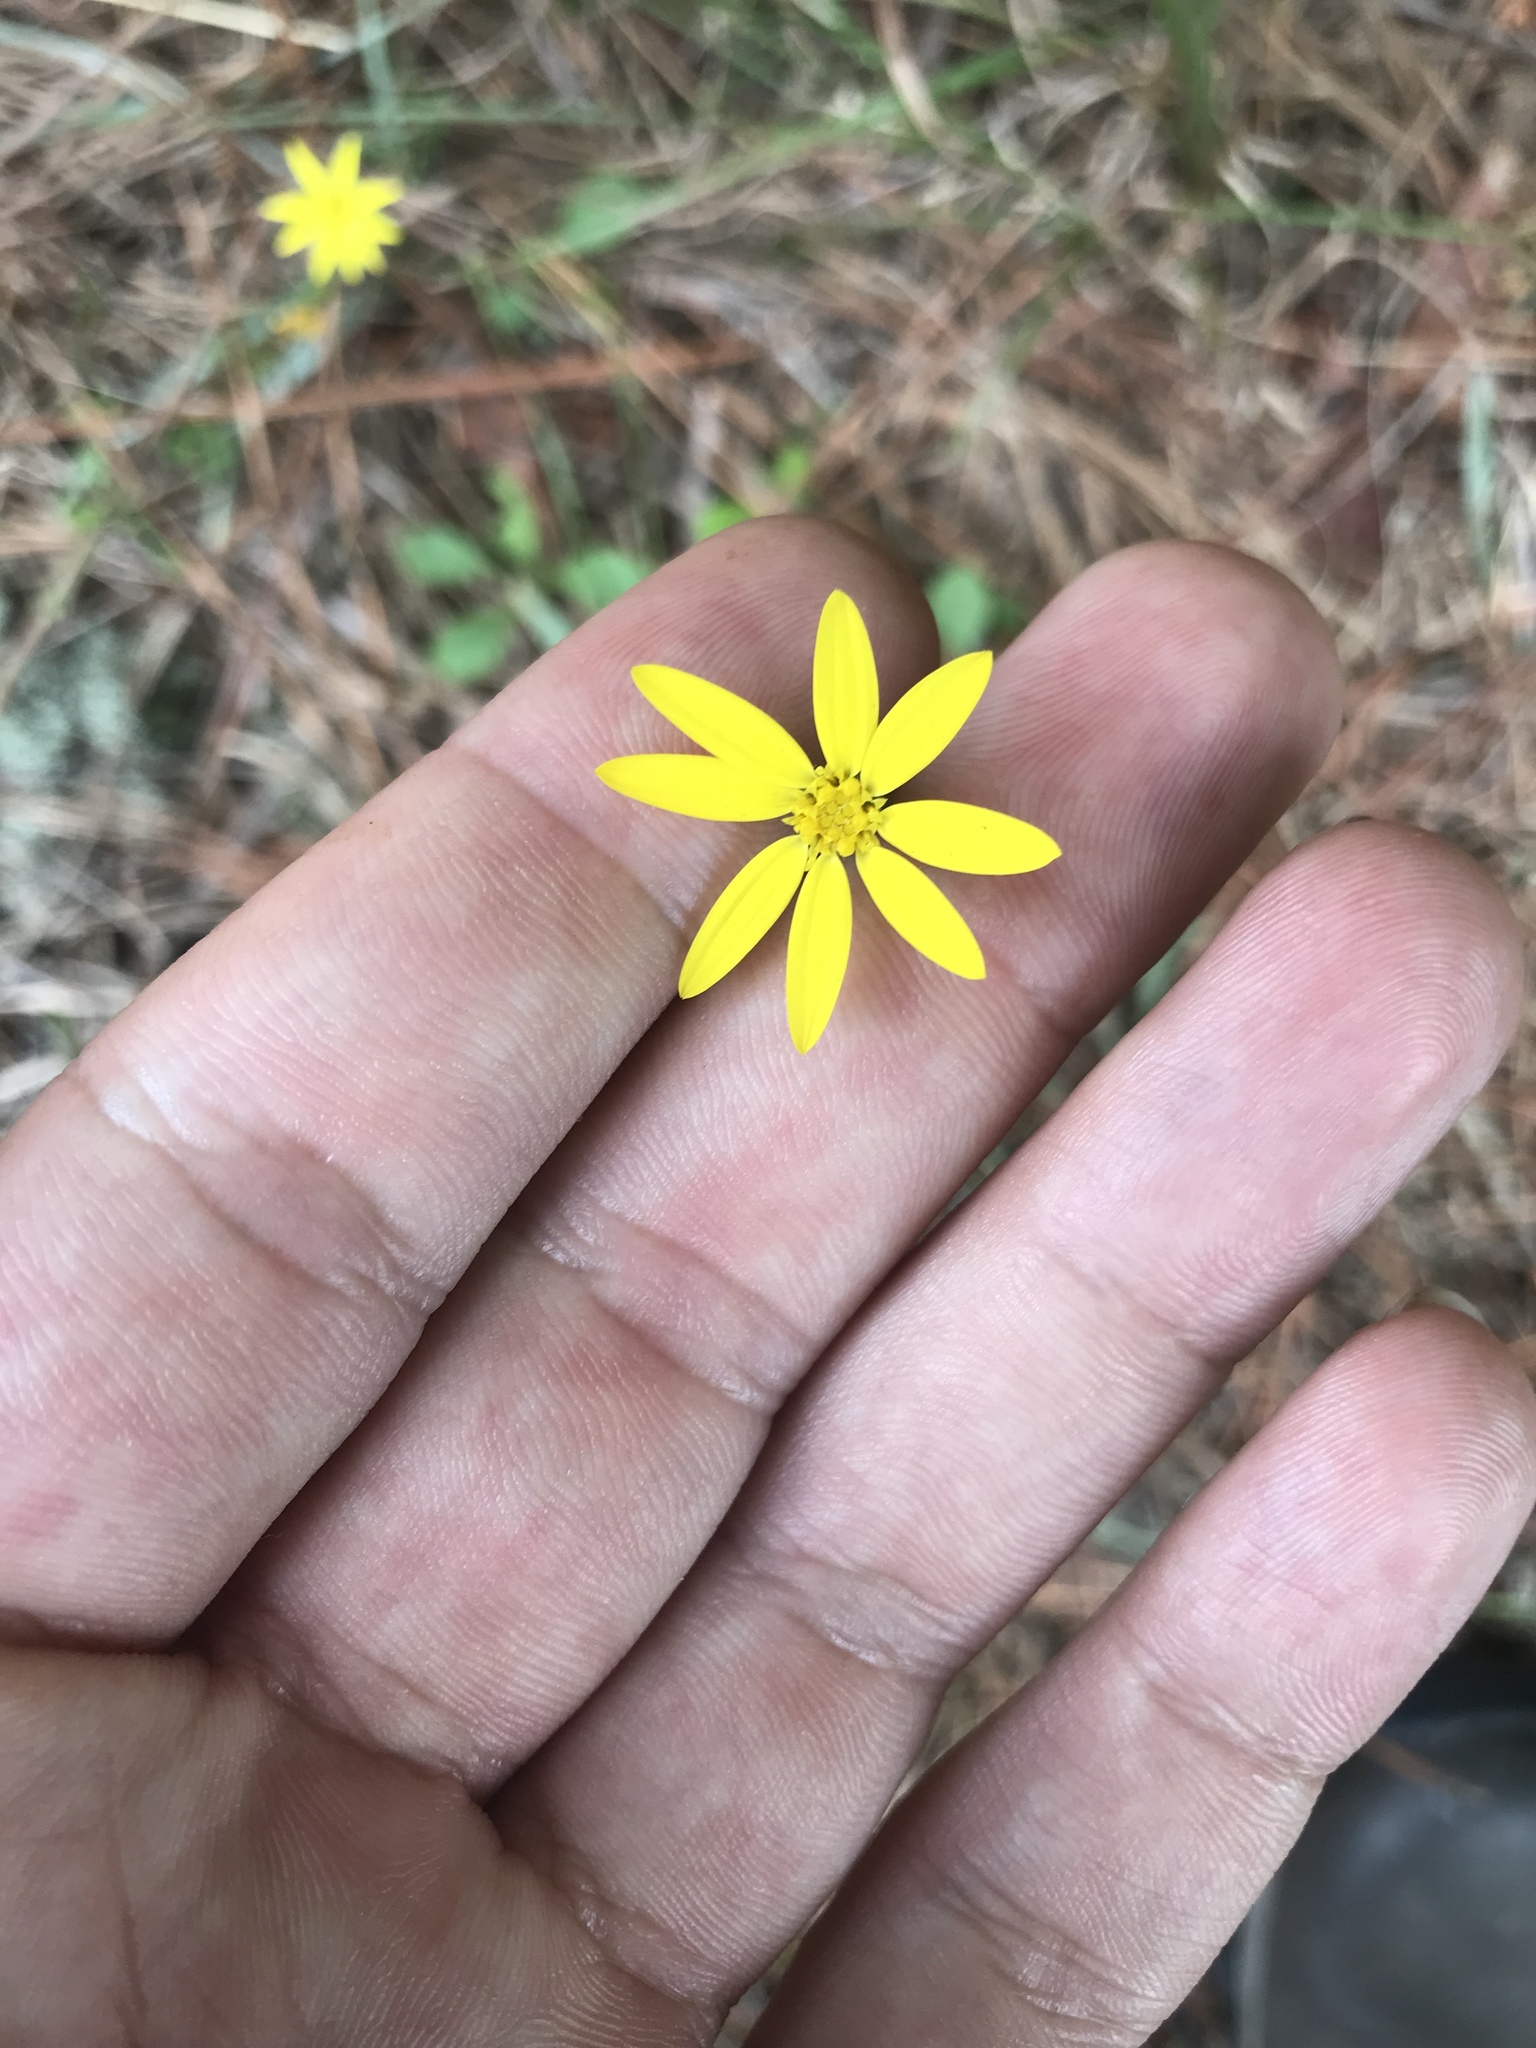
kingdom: Plantae
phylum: Tracheophyta
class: Magnoliopsida
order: Asterales
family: Asteraceae
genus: Pityopsis
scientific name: Pityopsis aspera
